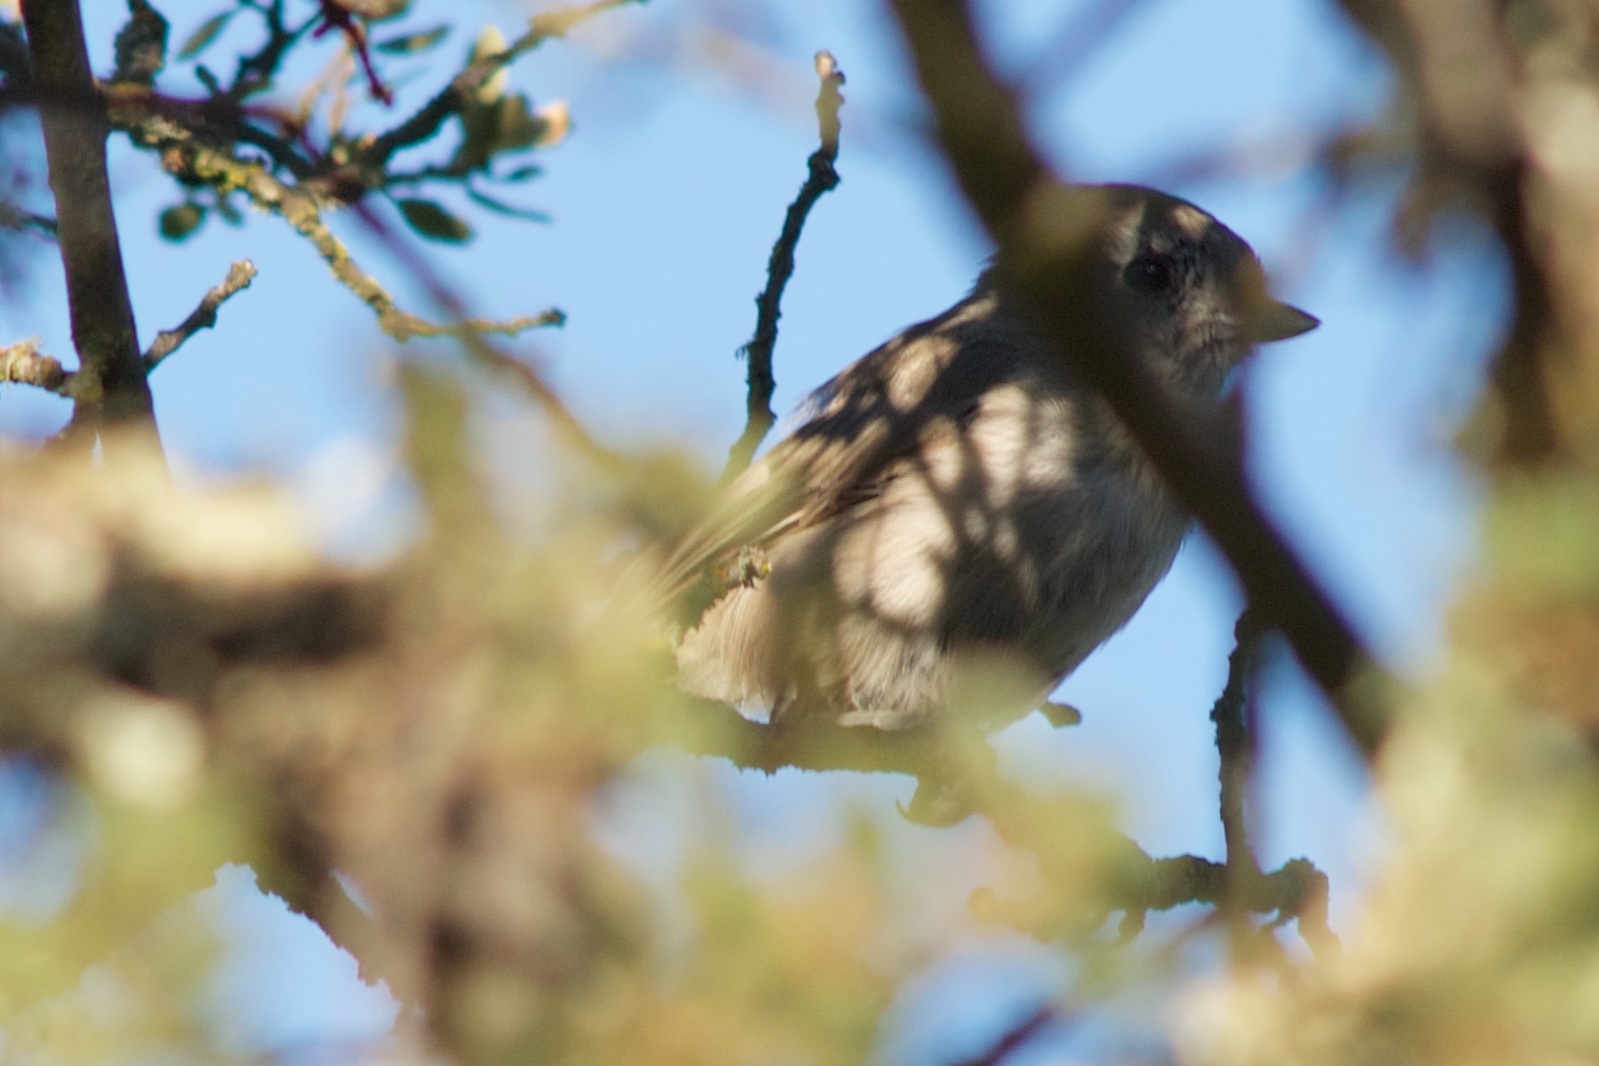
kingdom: Animalia
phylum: Chordata
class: Aves
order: Passeriformes
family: Paridae
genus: Baeolophus
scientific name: Baeolophus inornatus
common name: Oak titmouse
